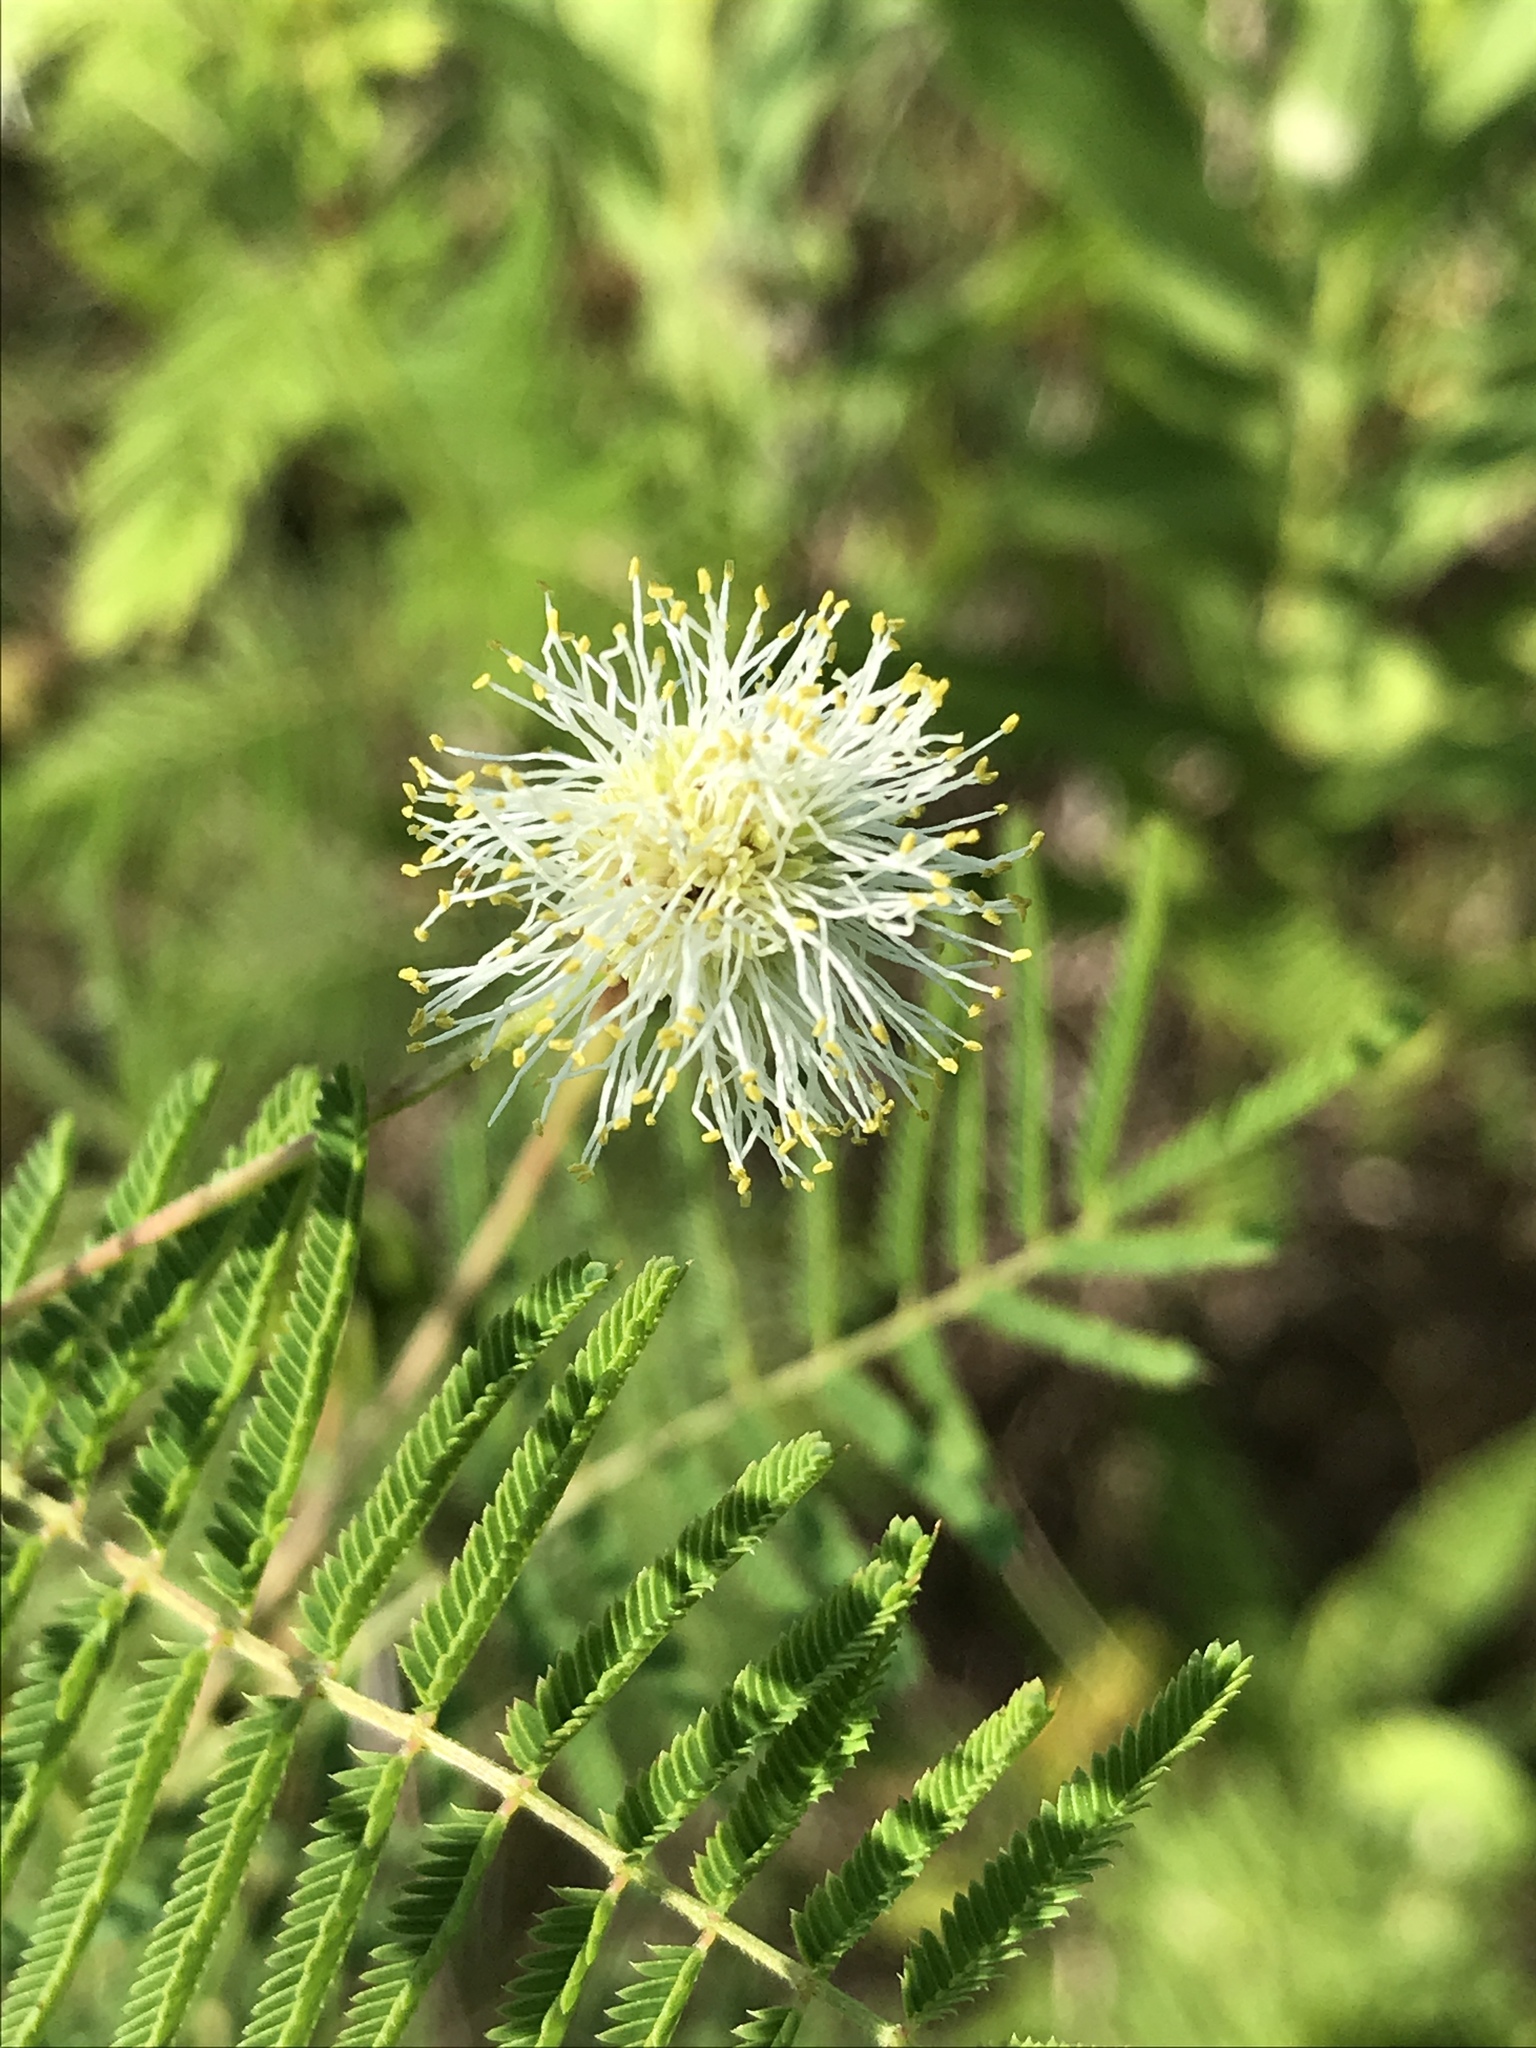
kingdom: Plantae
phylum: Tracheophyta
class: Magnoliopsida
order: Fabales
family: Fabaceae
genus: Desmanthus
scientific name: Desmanthus illinoensis
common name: Illinois bundle-flower
